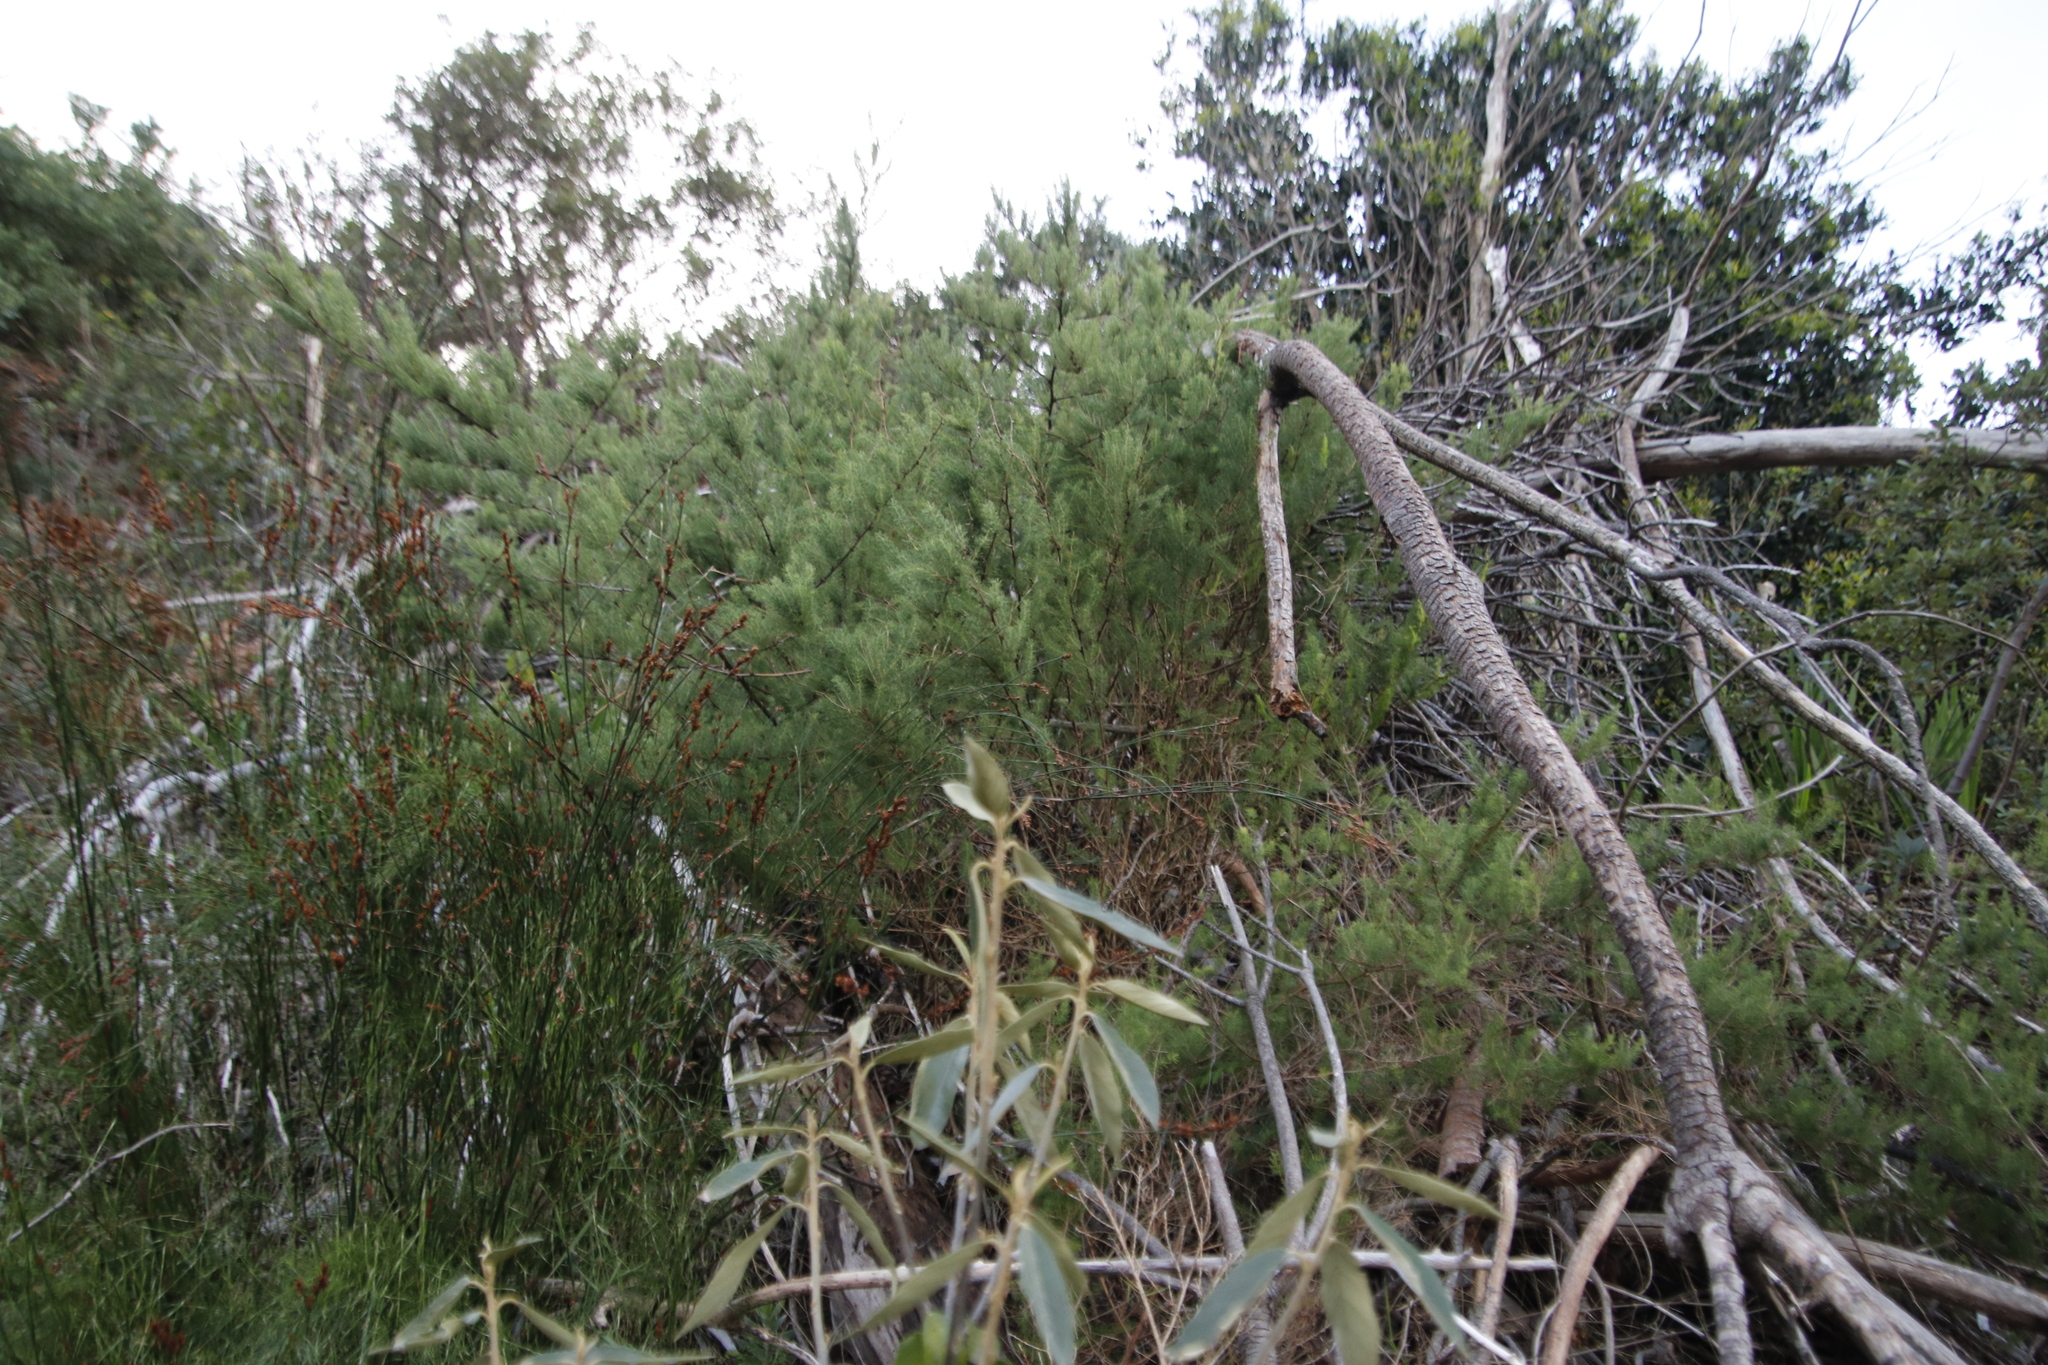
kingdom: Plantae
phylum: Tracheophyta
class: Liliopsida
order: Asparagales
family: Asparagaceae
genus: Asparagus
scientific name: Asparagus rubicundus
